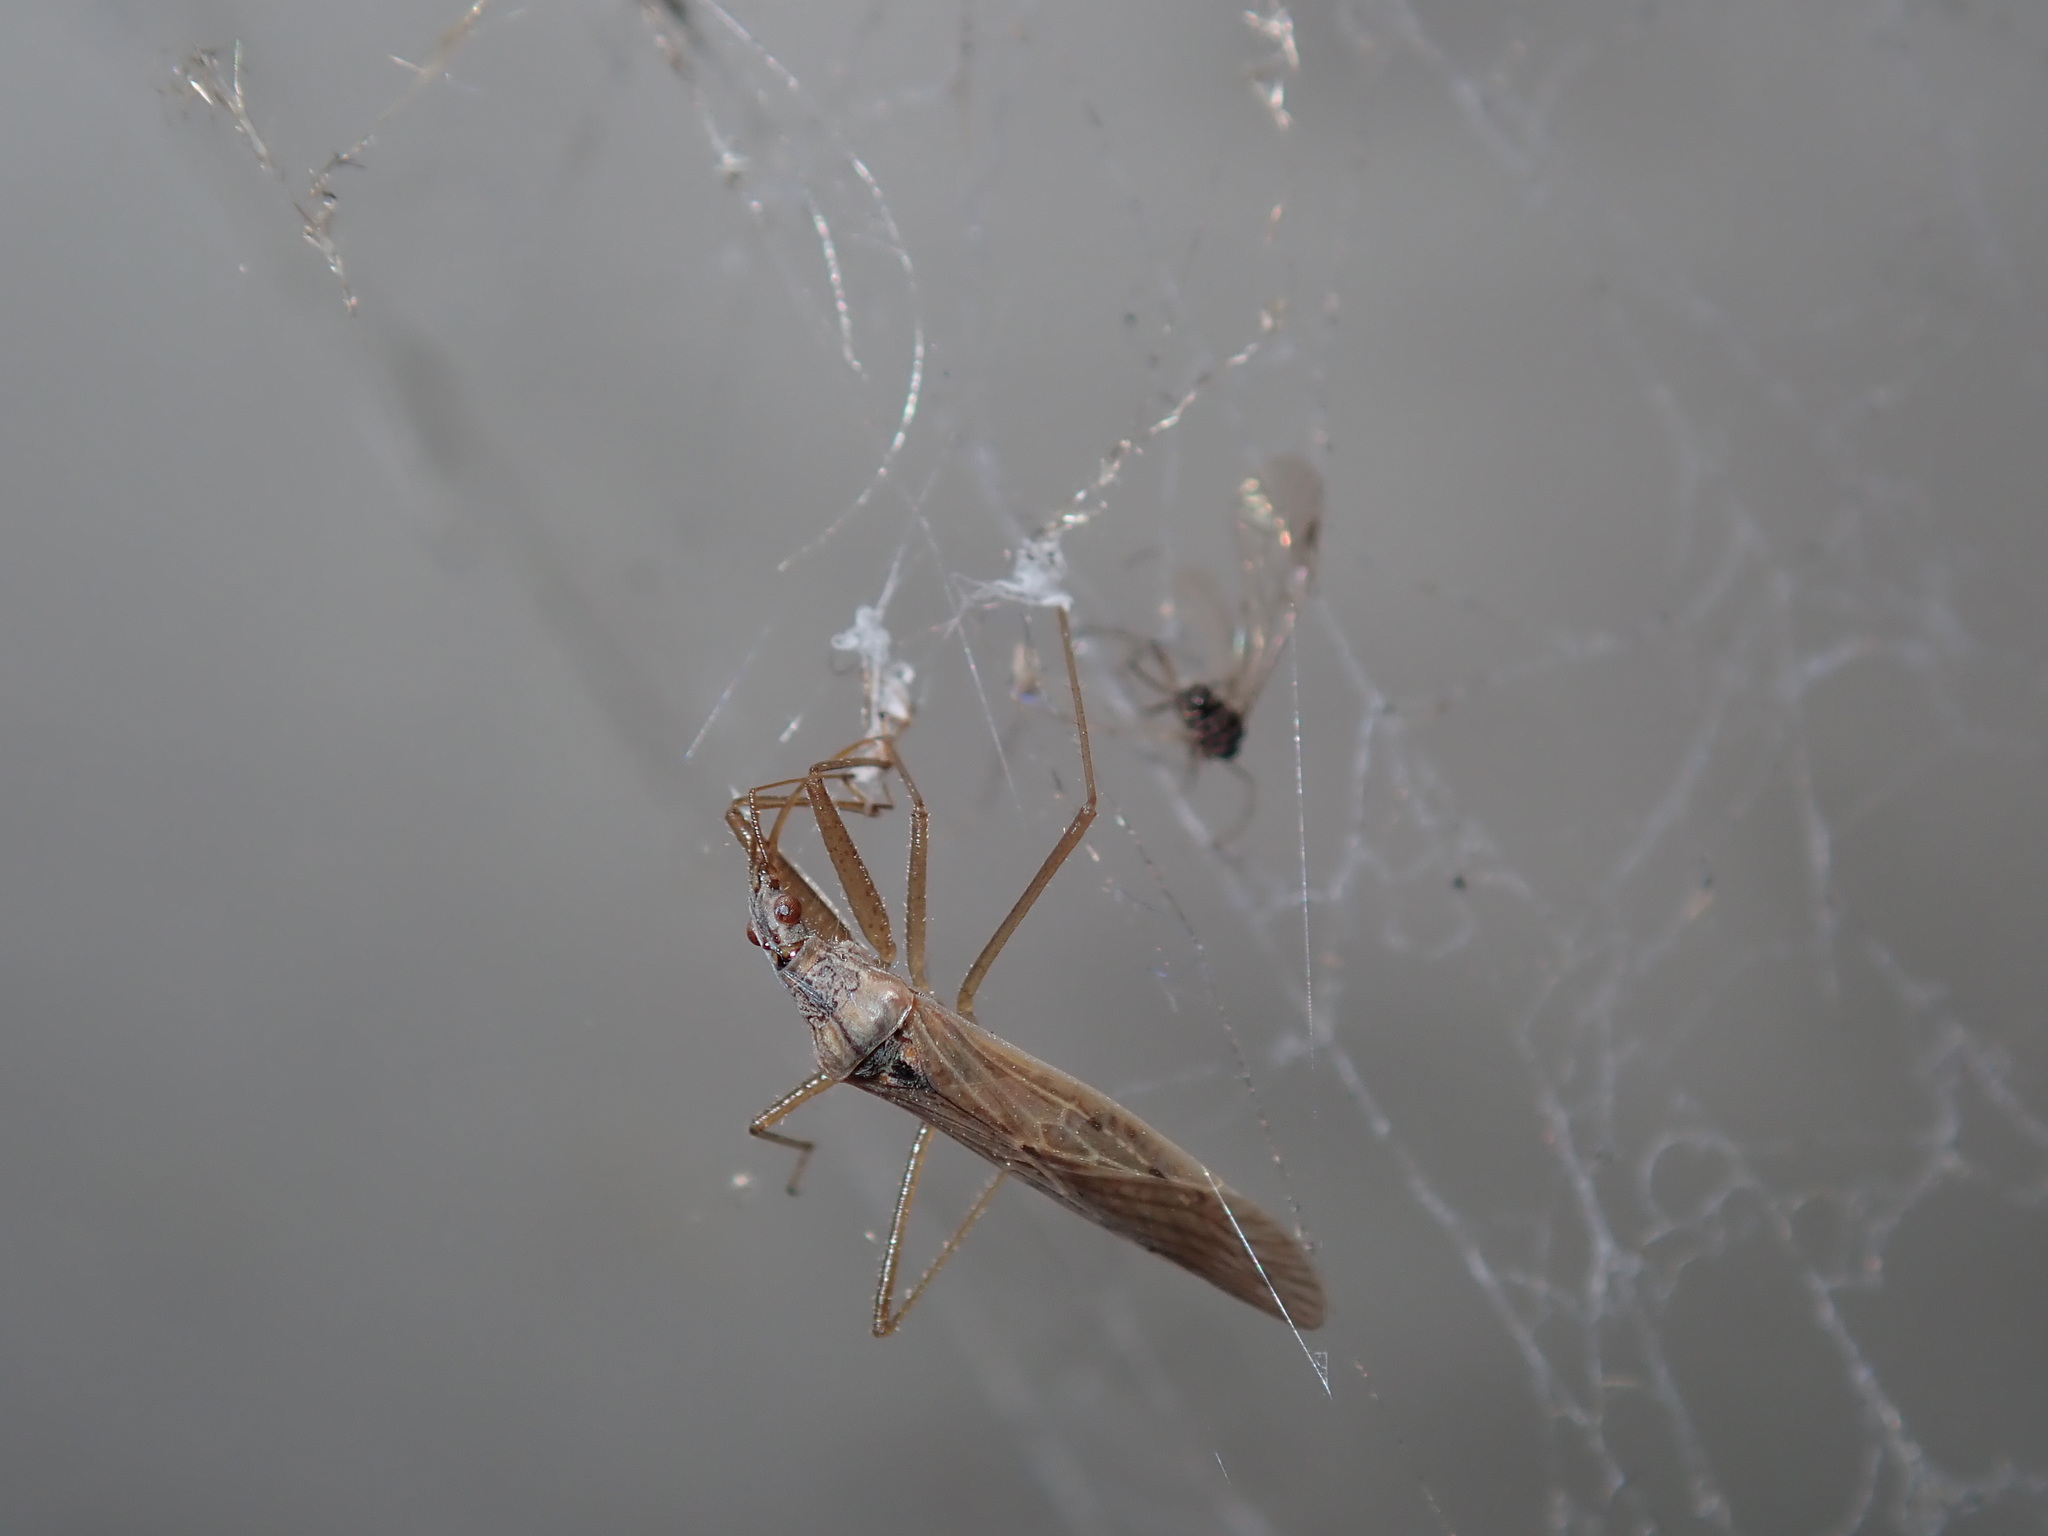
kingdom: Animalia
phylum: Arthropoda
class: Insecta
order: Hemiptera
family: Nabidae
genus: Nabis
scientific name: Nabis kinbergii
